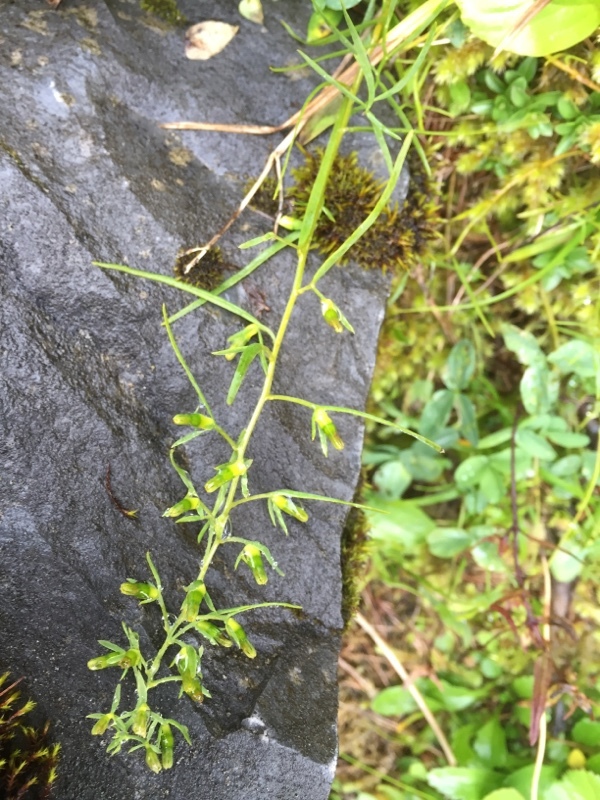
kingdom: Plantae
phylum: Tracheophyta
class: Magnoliopsida
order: Santalales
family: Thesiaceae
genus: Thesium
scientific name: Thesium pyrenaicum
